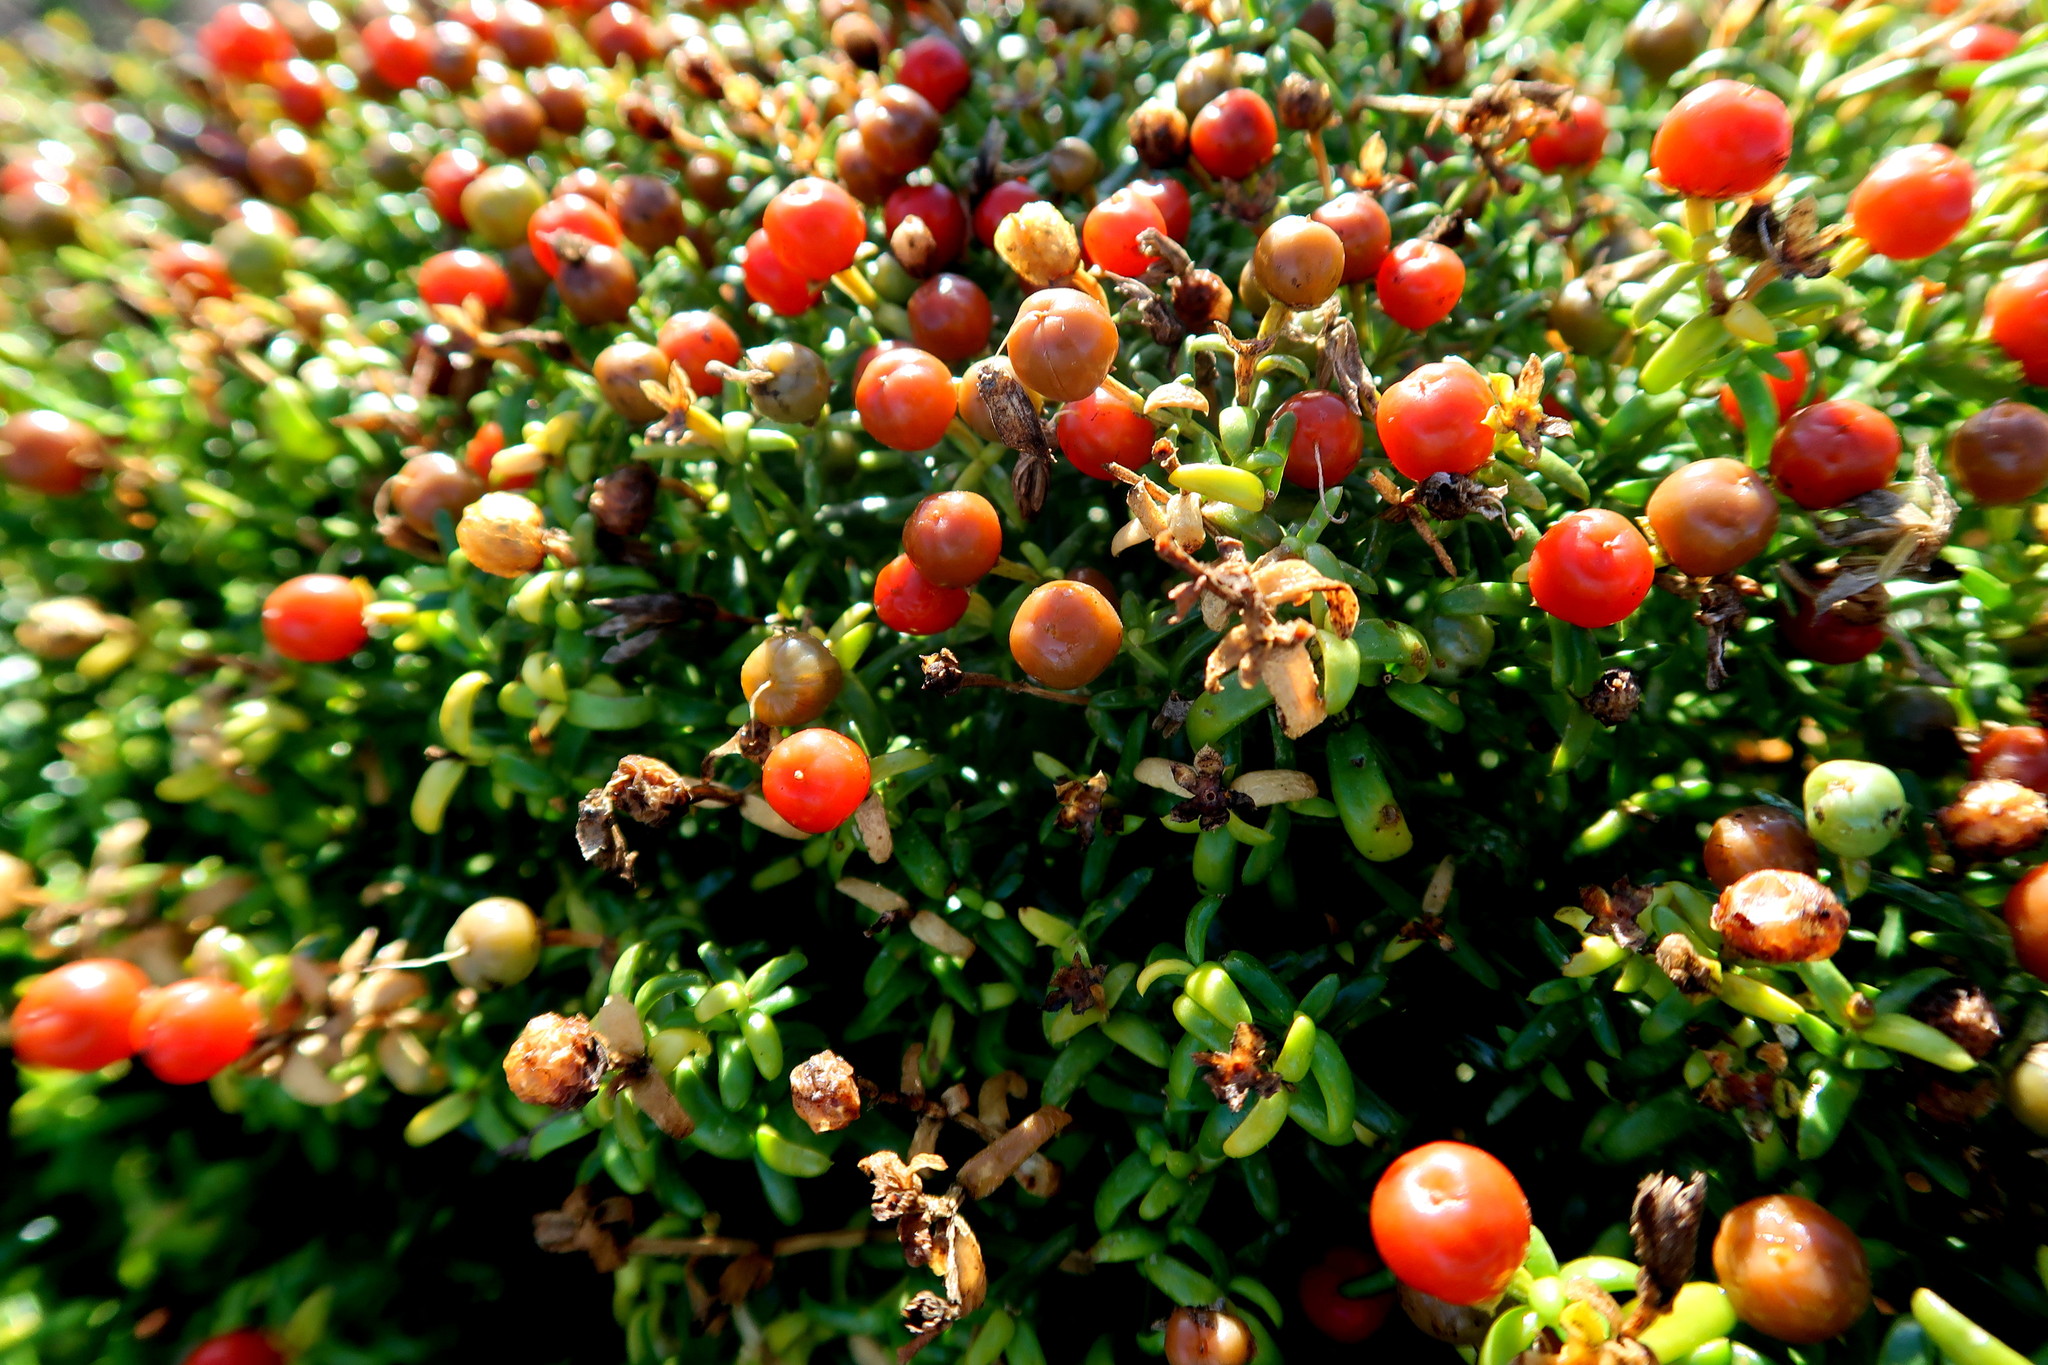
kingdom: Plantae
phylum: Tracheophyta
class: Magnoliopsida
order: Gentianales
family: Gentianaceae
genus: Chironia
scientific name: Chironia baccifera
